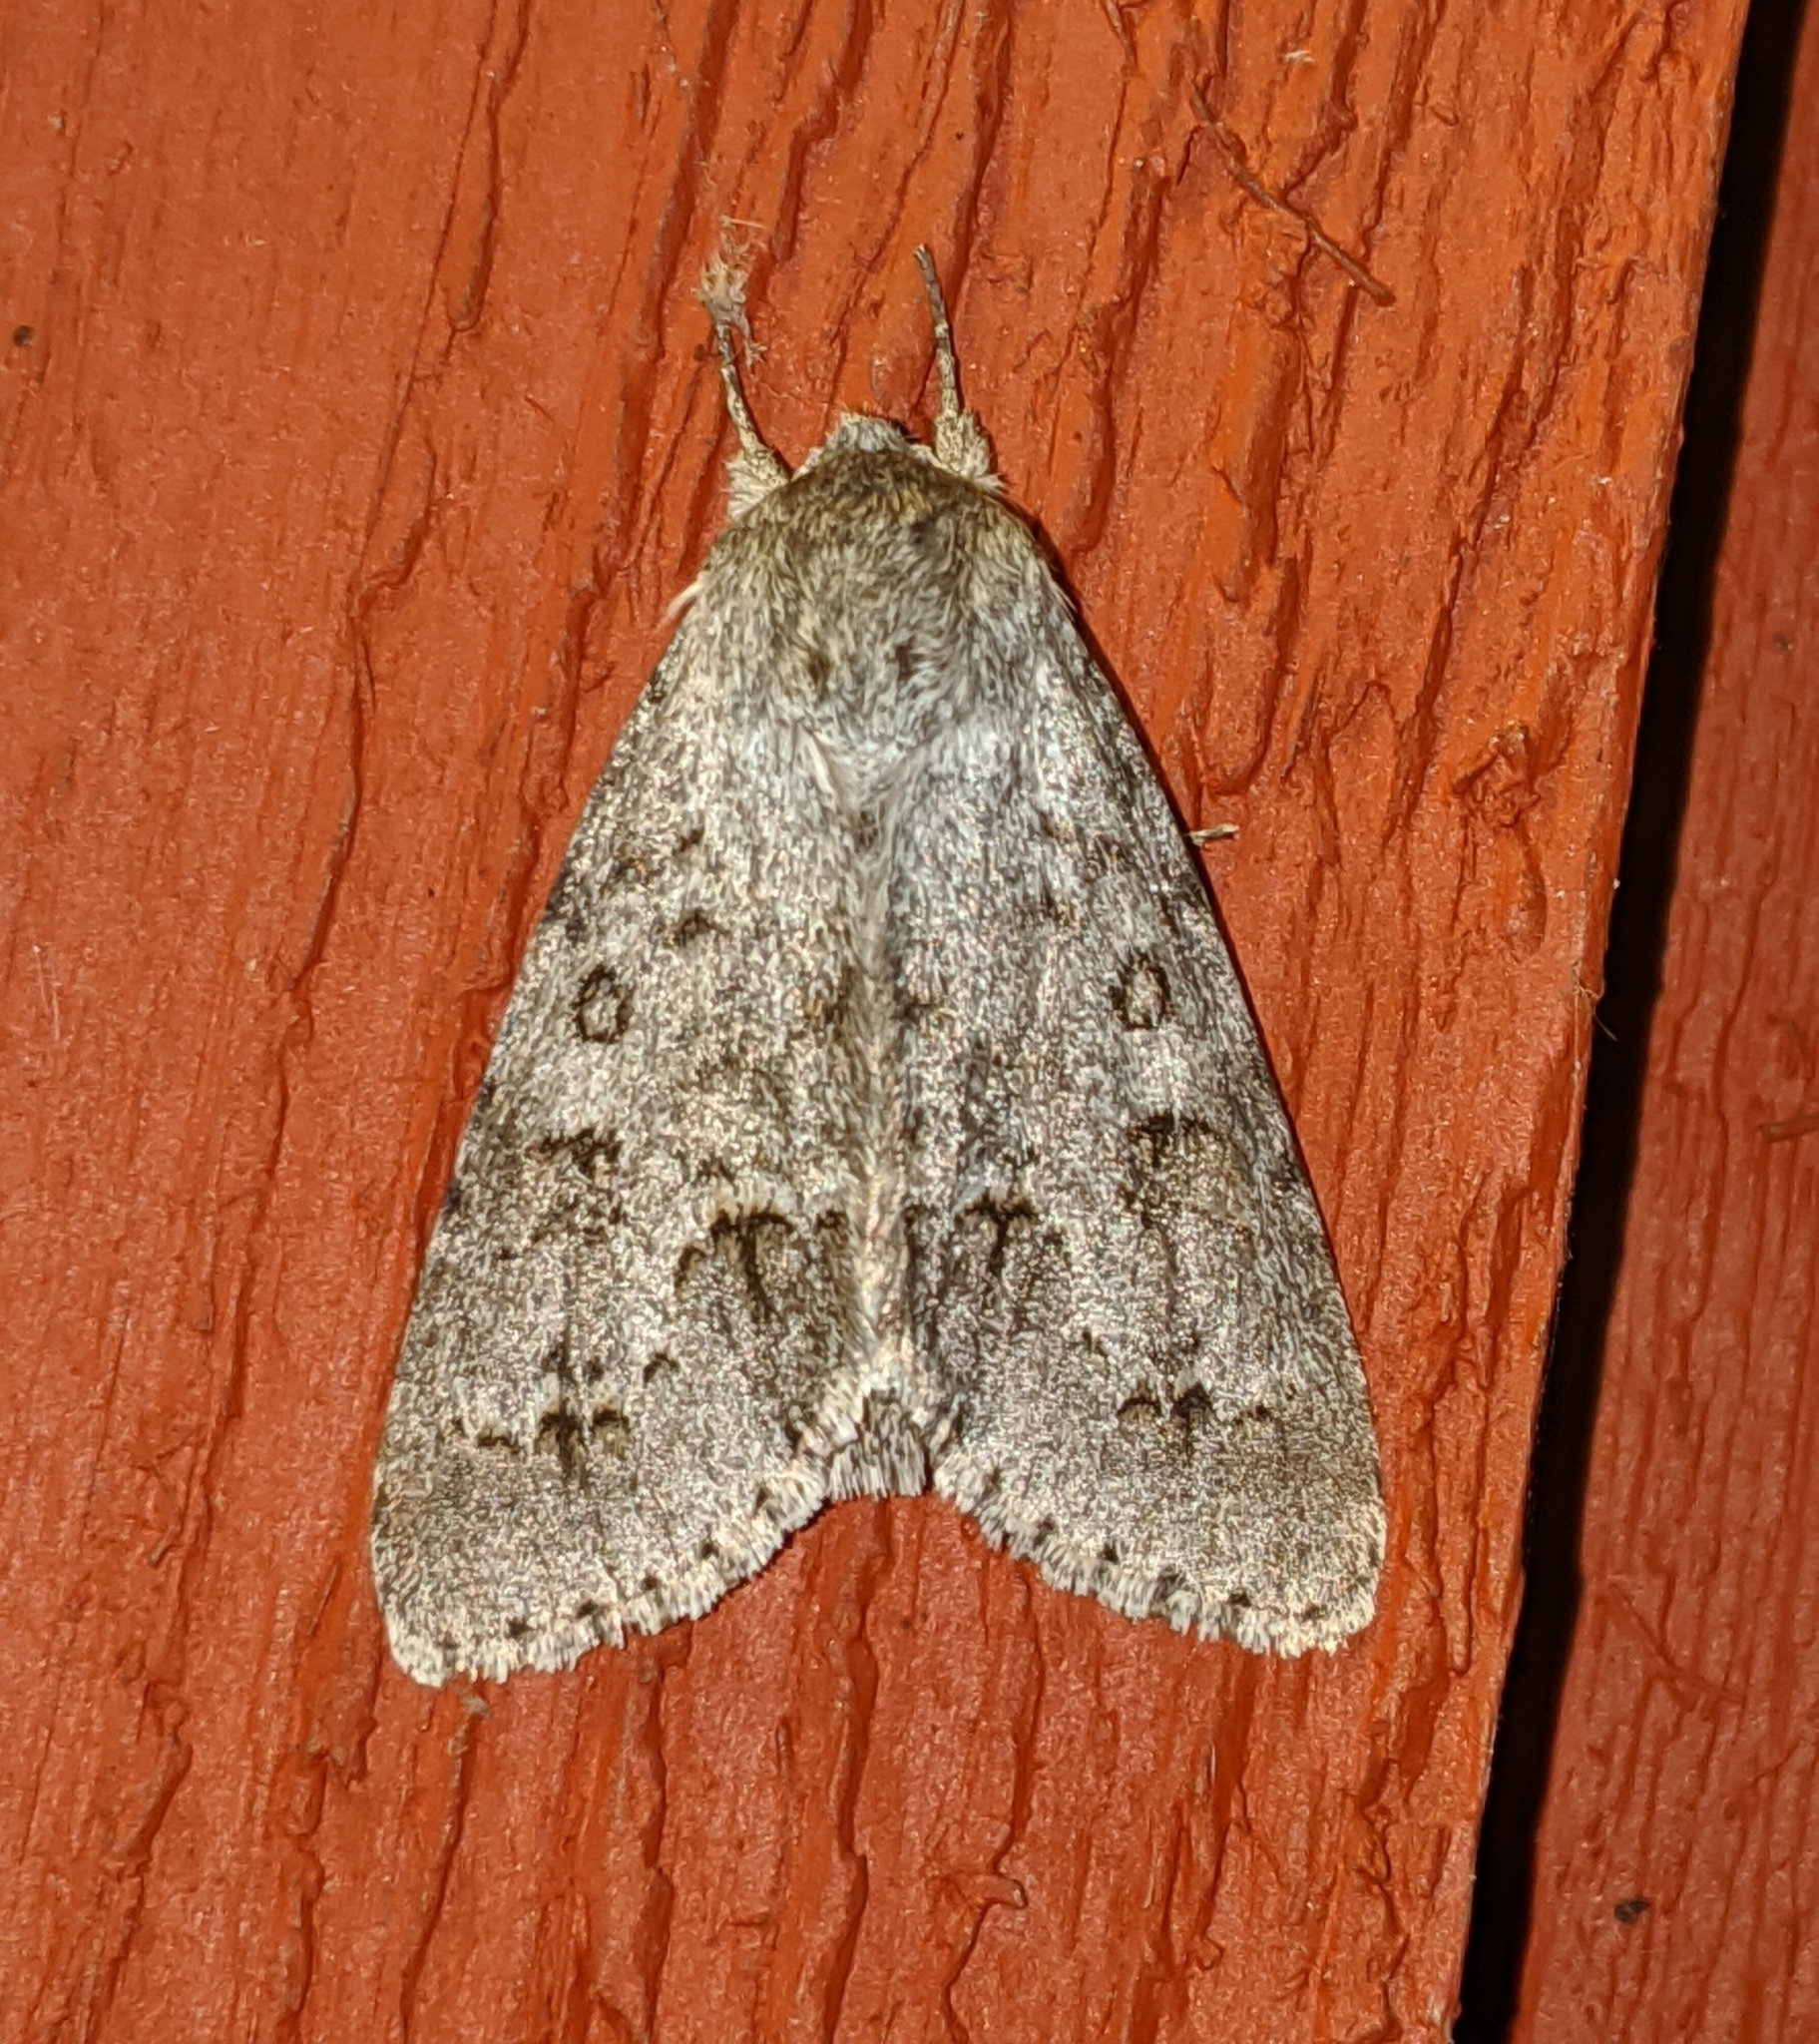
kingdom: Animalia
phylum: Arthropoda
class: Insecta
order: Lepidoptera
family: Noctuidae
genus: Acronicta
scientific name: Acronicta insita
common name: Large gray dagger
